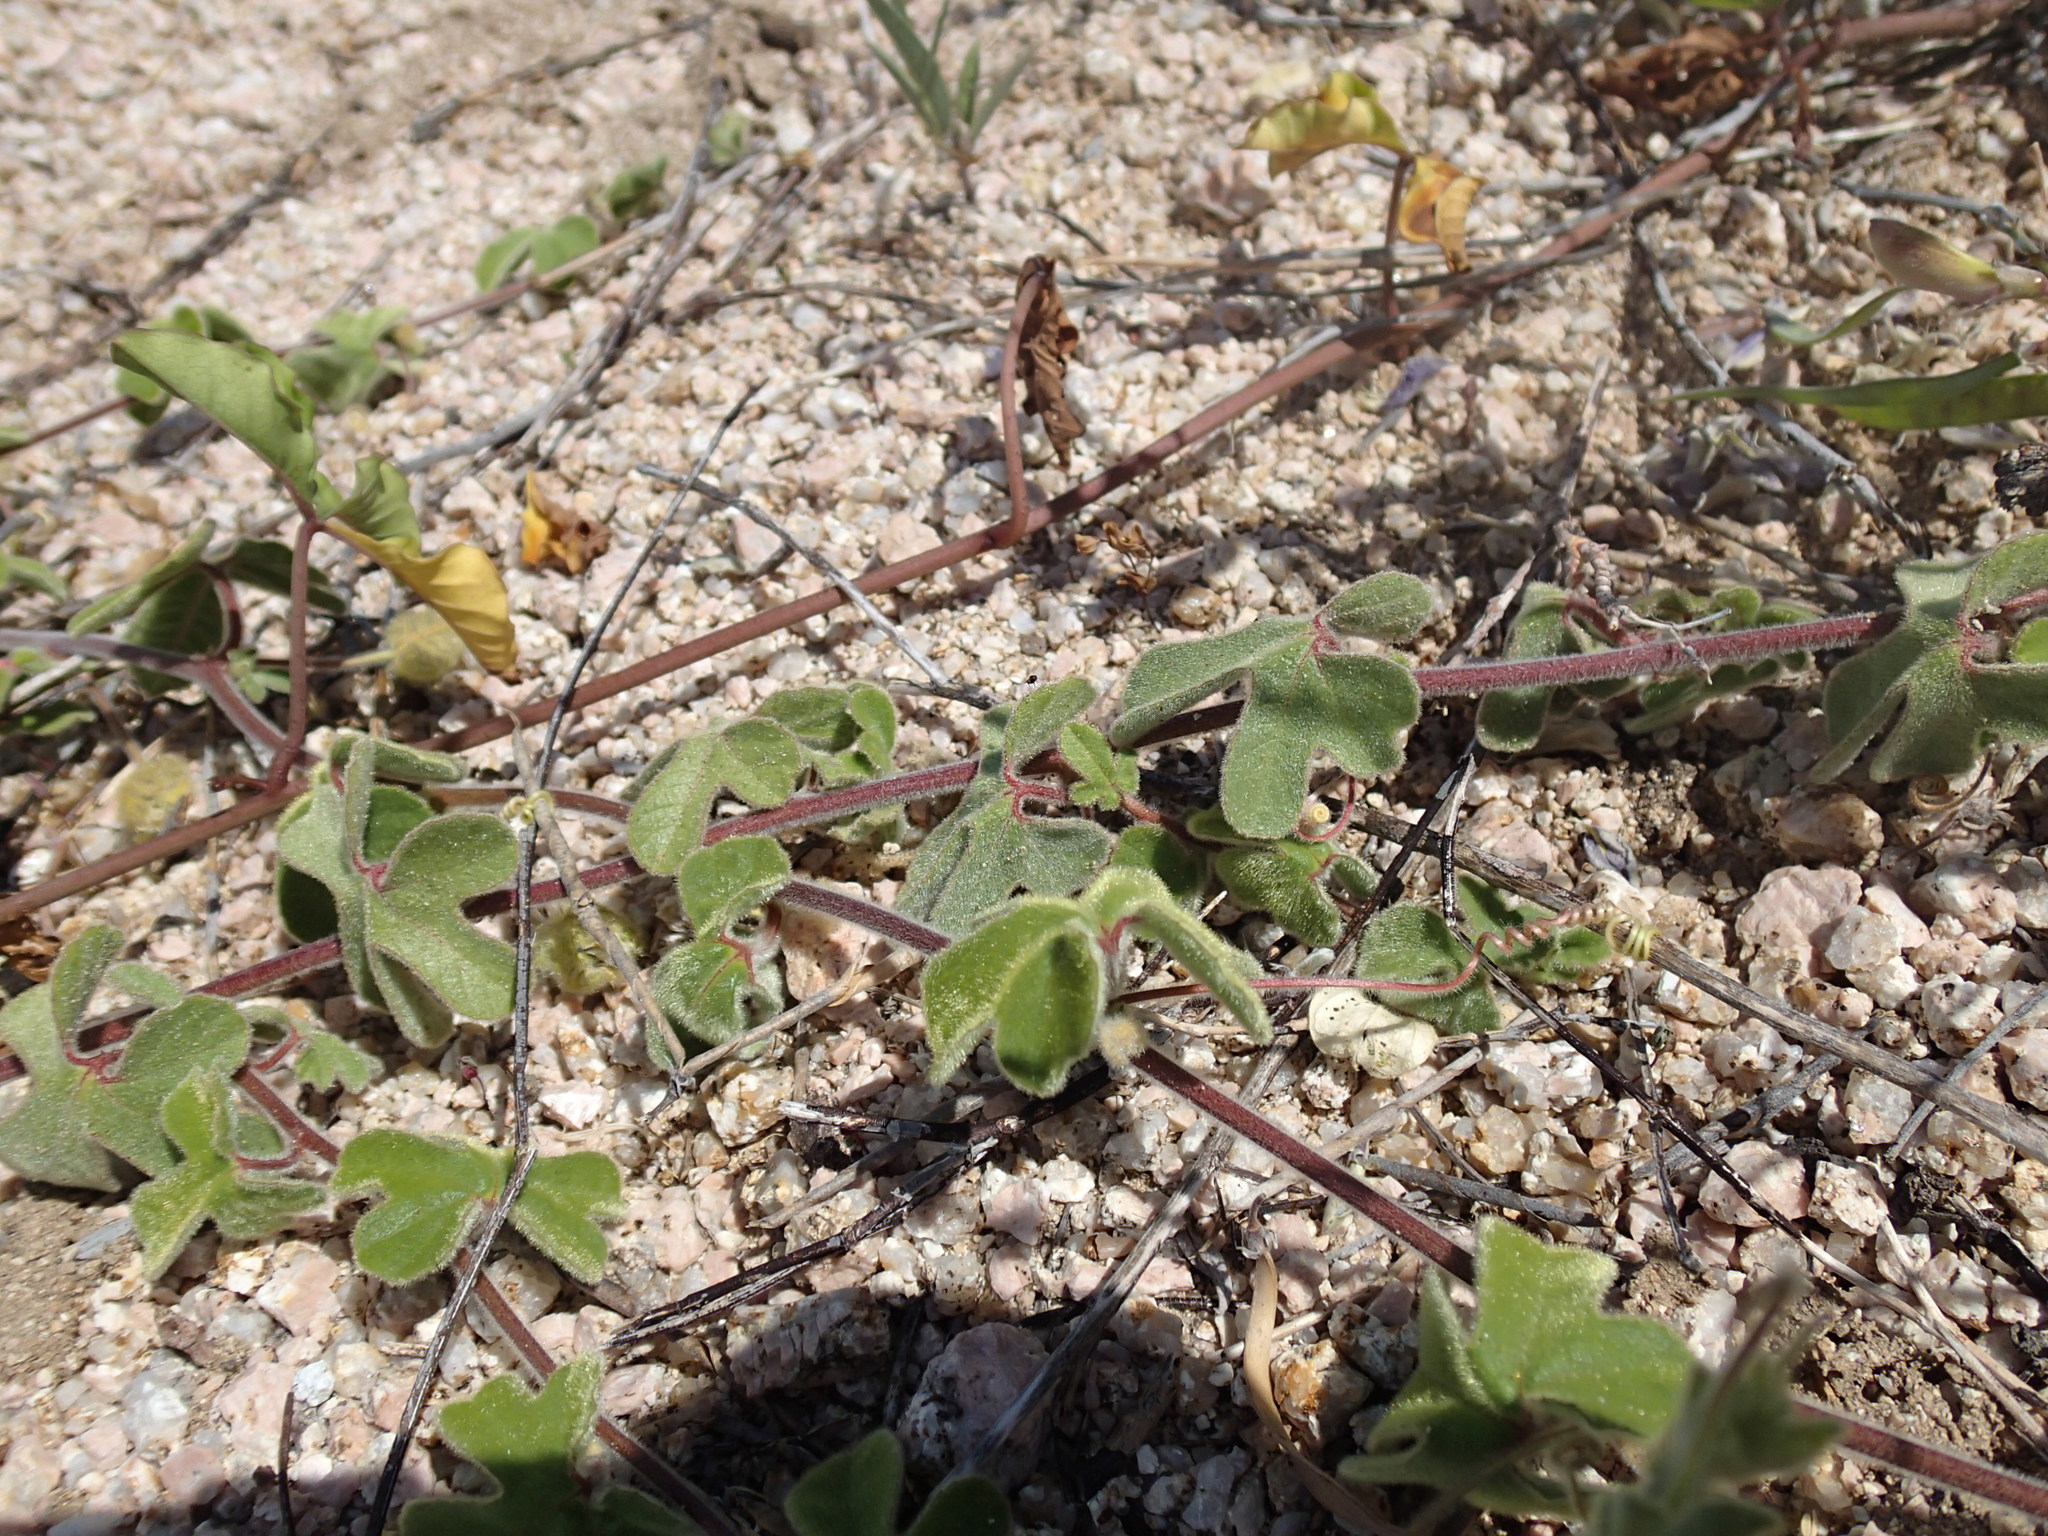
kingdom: Plantae
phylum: Tracheophyta
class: Magnoliopsida
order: Solanales
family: Convolvulaceae
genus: Distimake
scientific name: Distimake aureus
